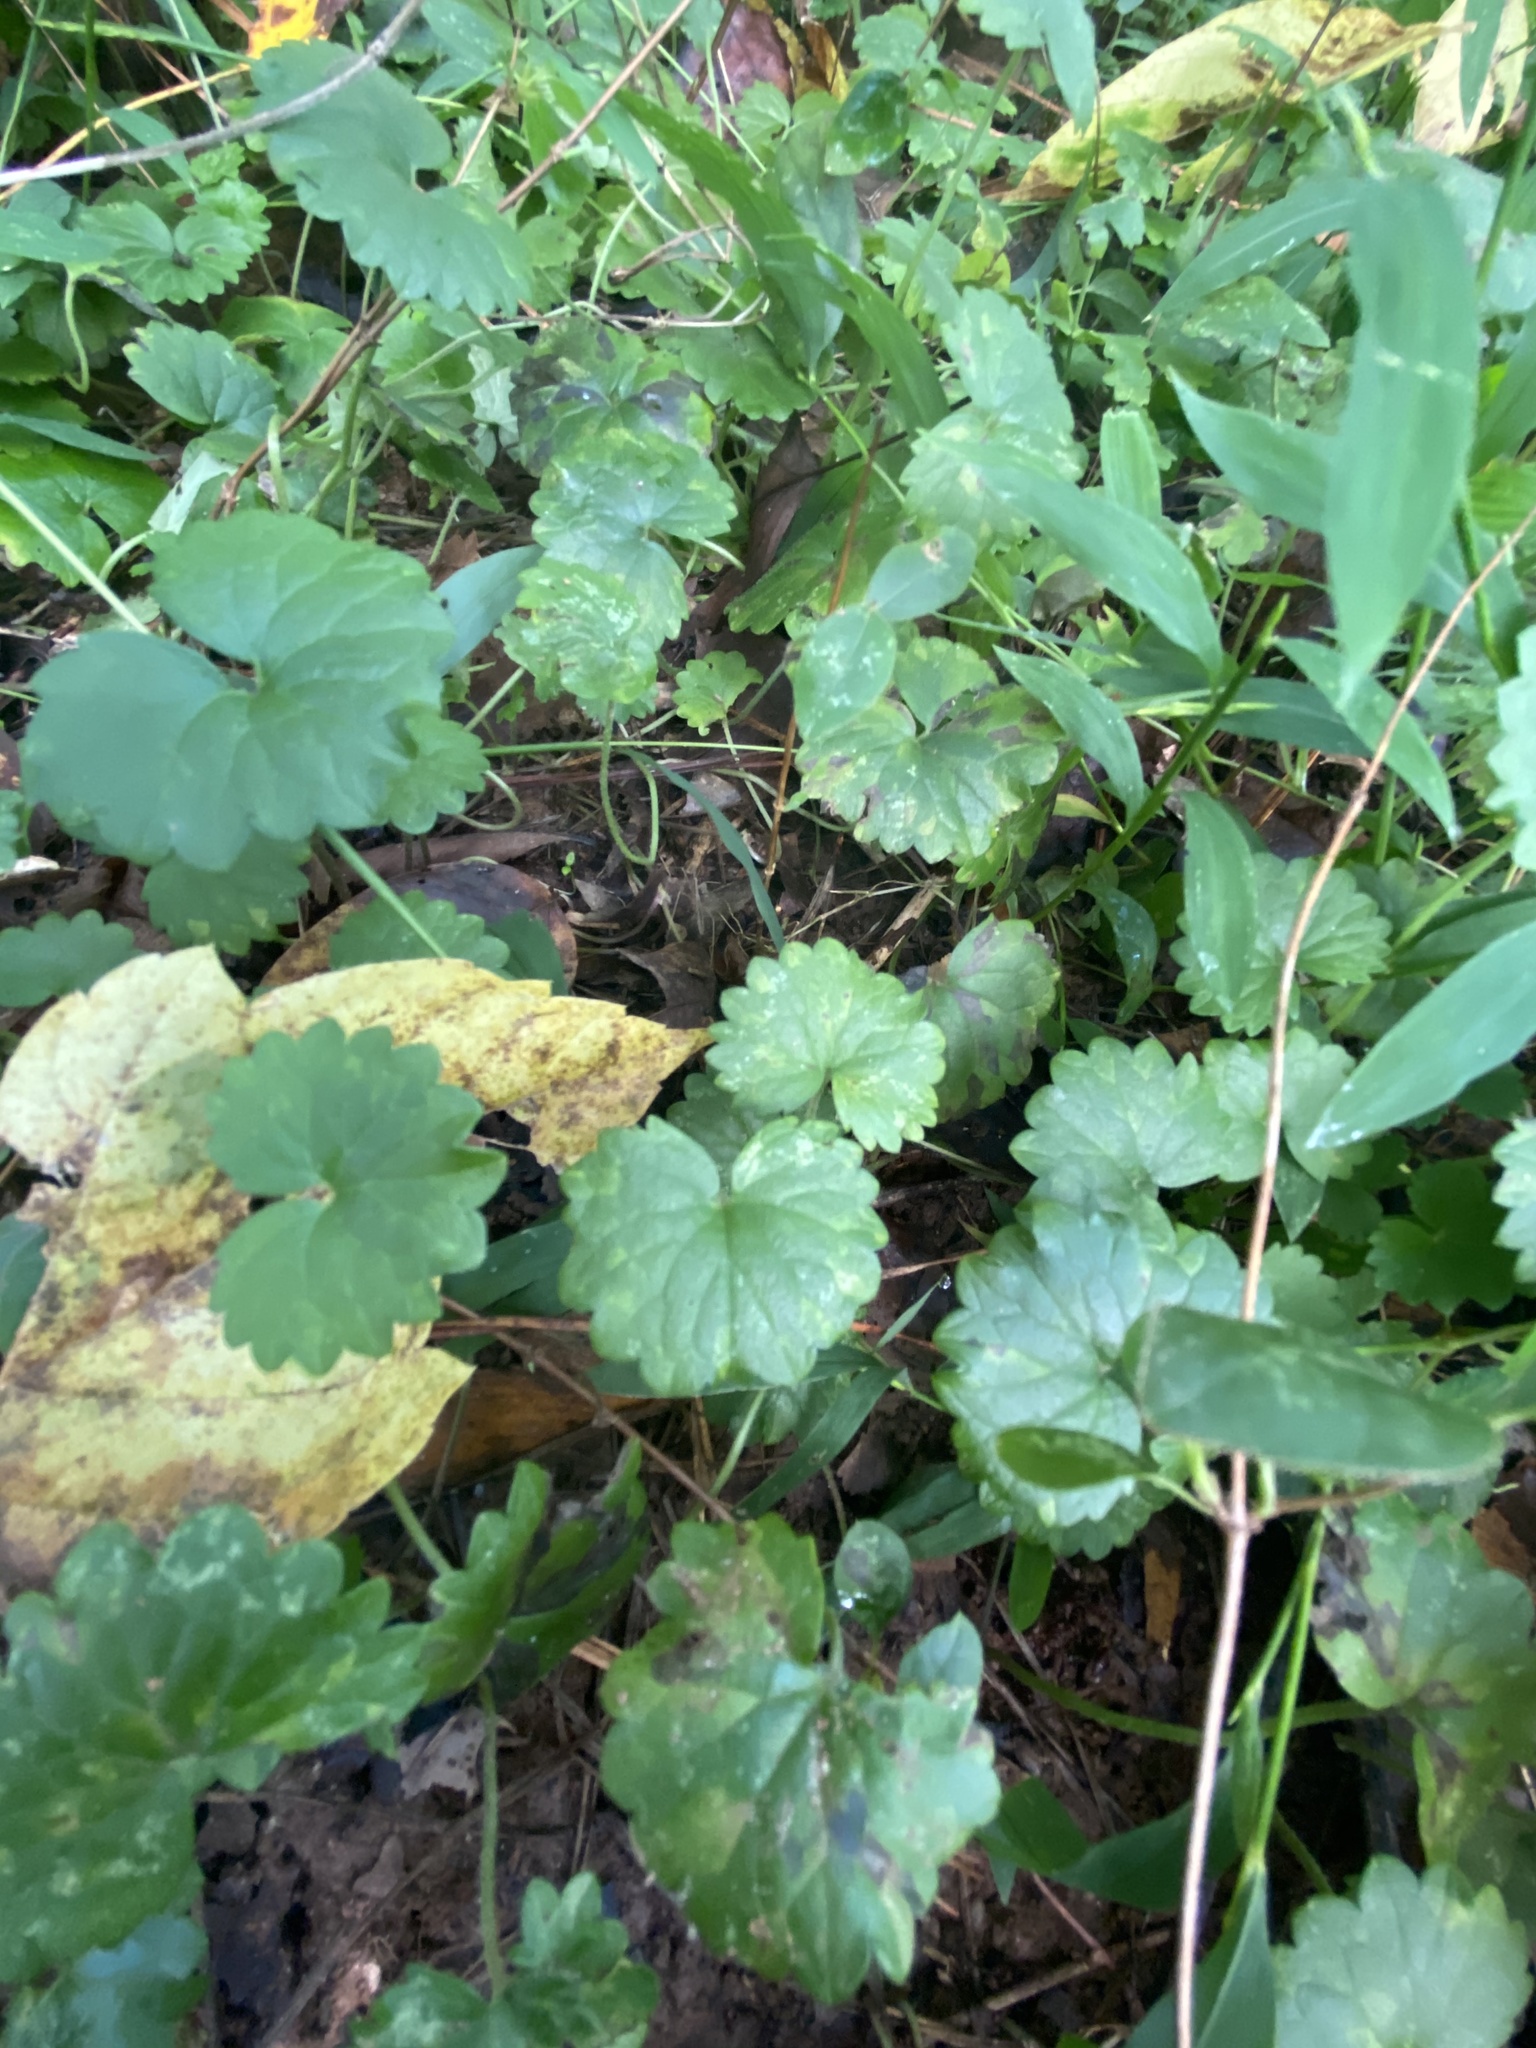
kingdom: Plantae
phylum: Tracheophyta
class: Magnoliopsida
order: Lamiales
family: Lamiaceae
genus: Glechoma
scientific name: Glechoma hederacea
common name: Ground ivy
